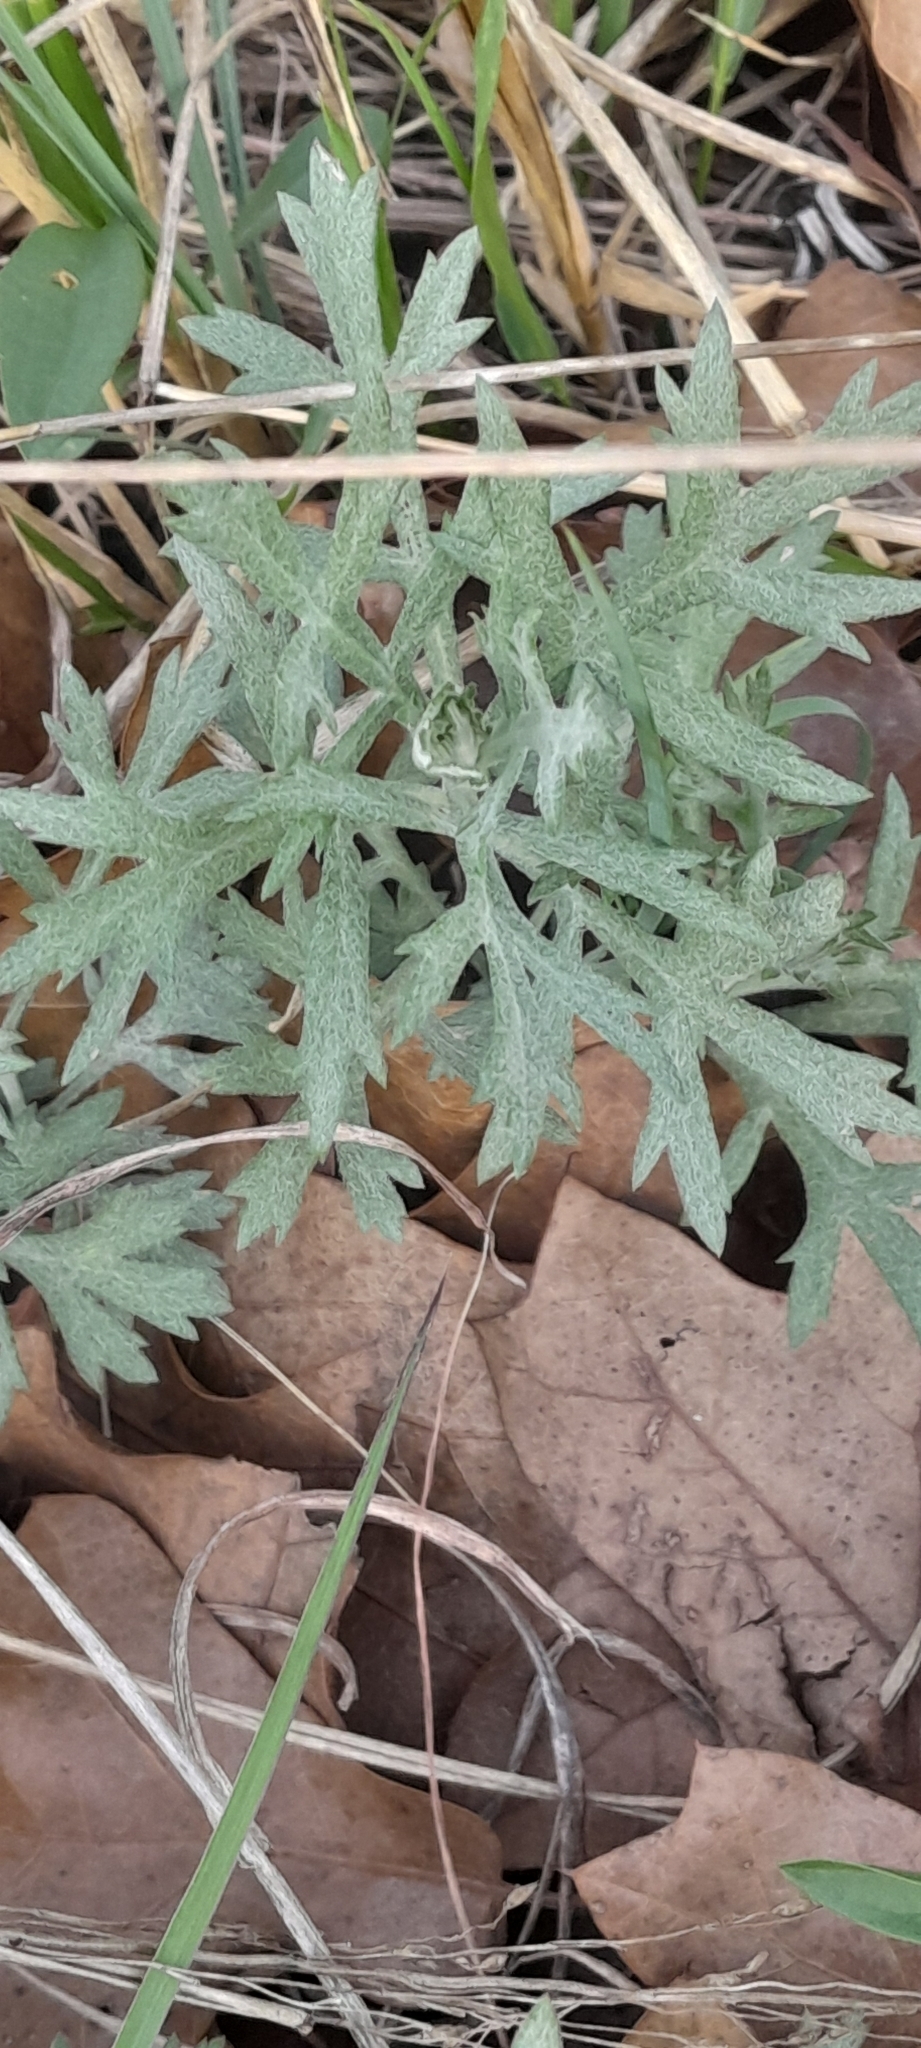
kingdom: Plantae
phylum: Tracheophyta
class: Magnoliopsida
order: Asterales
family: Asteraceae
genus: Artemisia
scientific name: Artemisia ludoviciana
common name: Western mugwort
